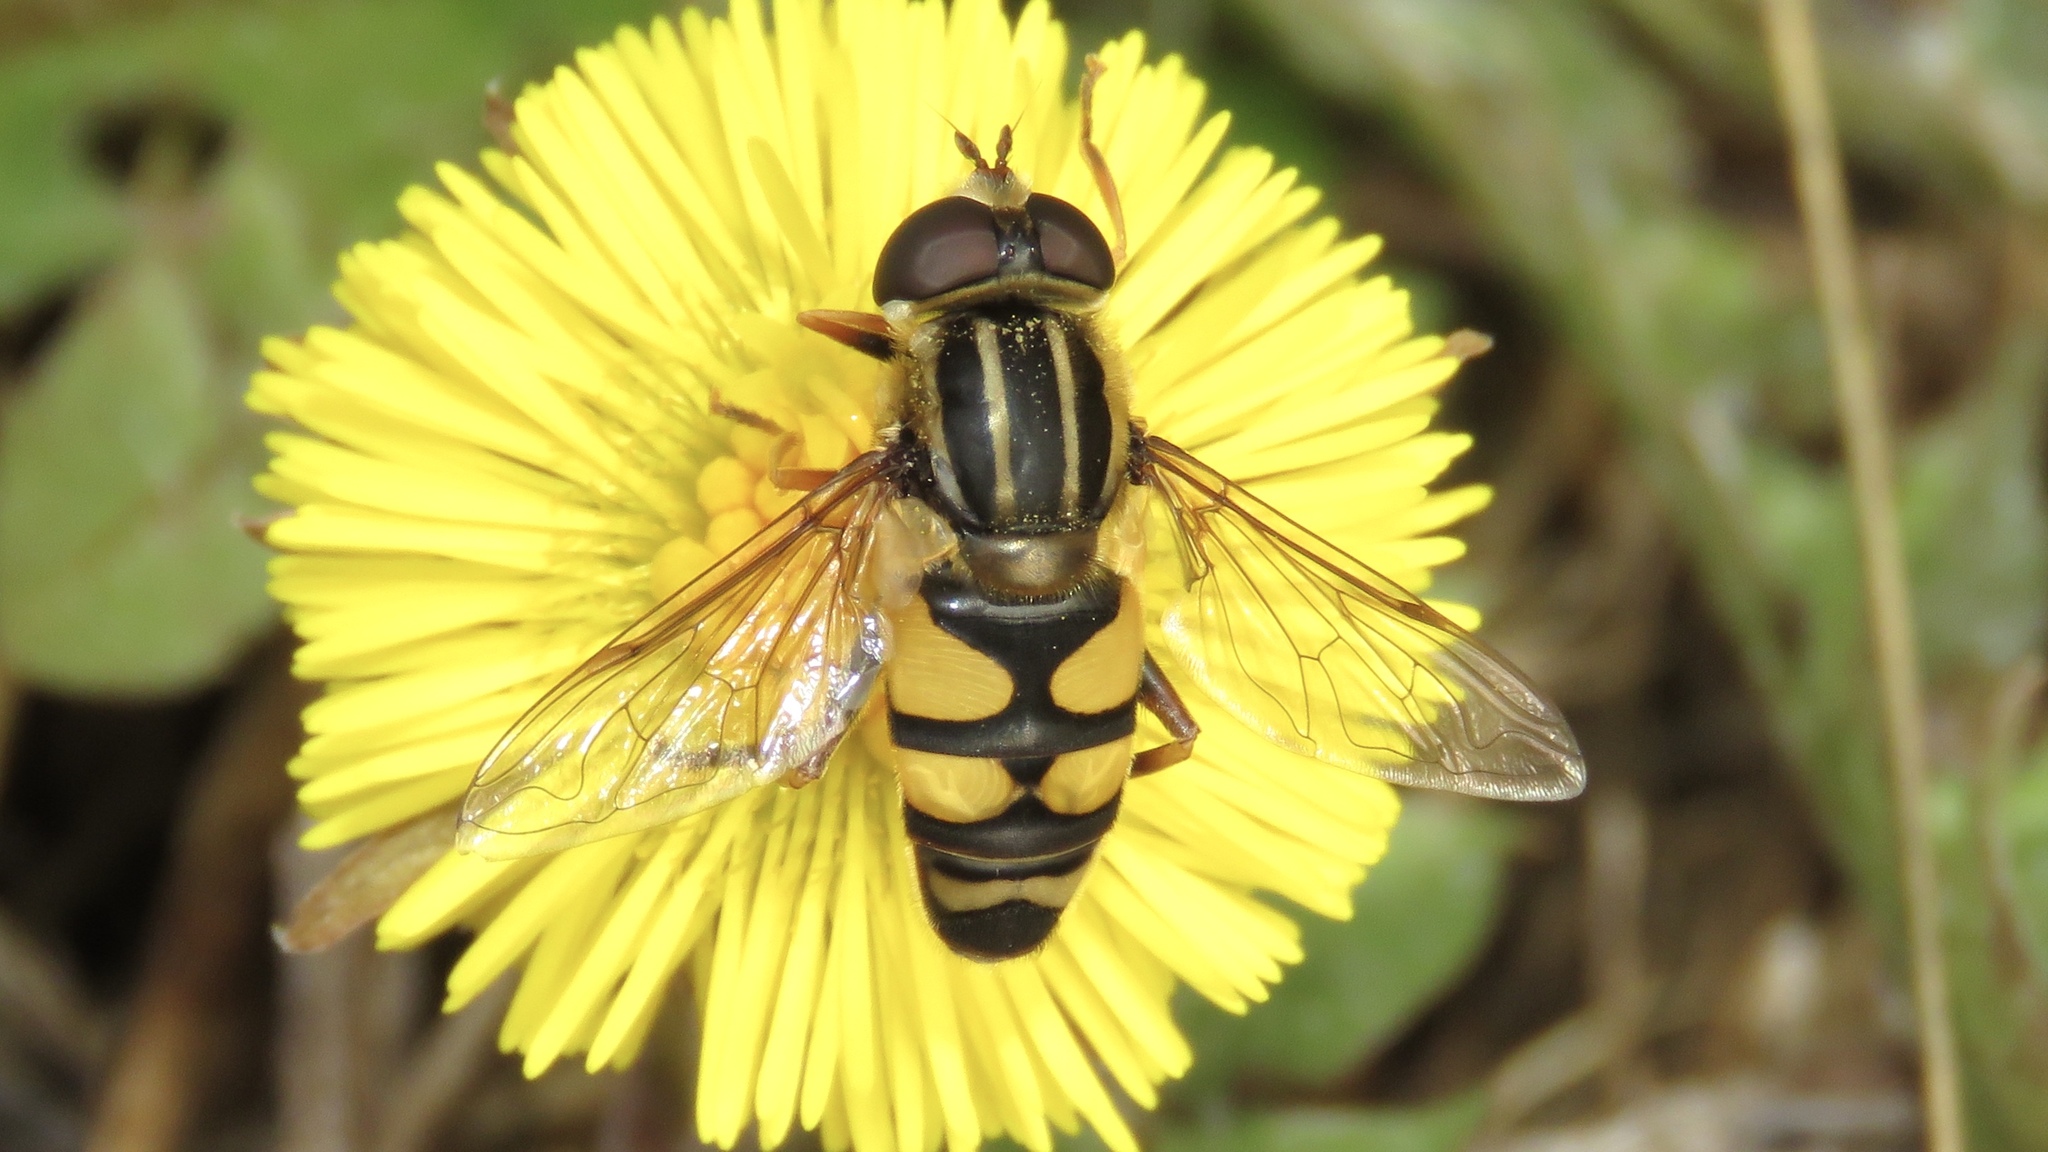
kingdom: Animalia
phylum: Arthropoda
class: Insecta
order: Diptera
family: Syrphidae
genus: Helophilus
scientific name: Helophilus fasciatus
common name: Narrow-headed marsh fly
